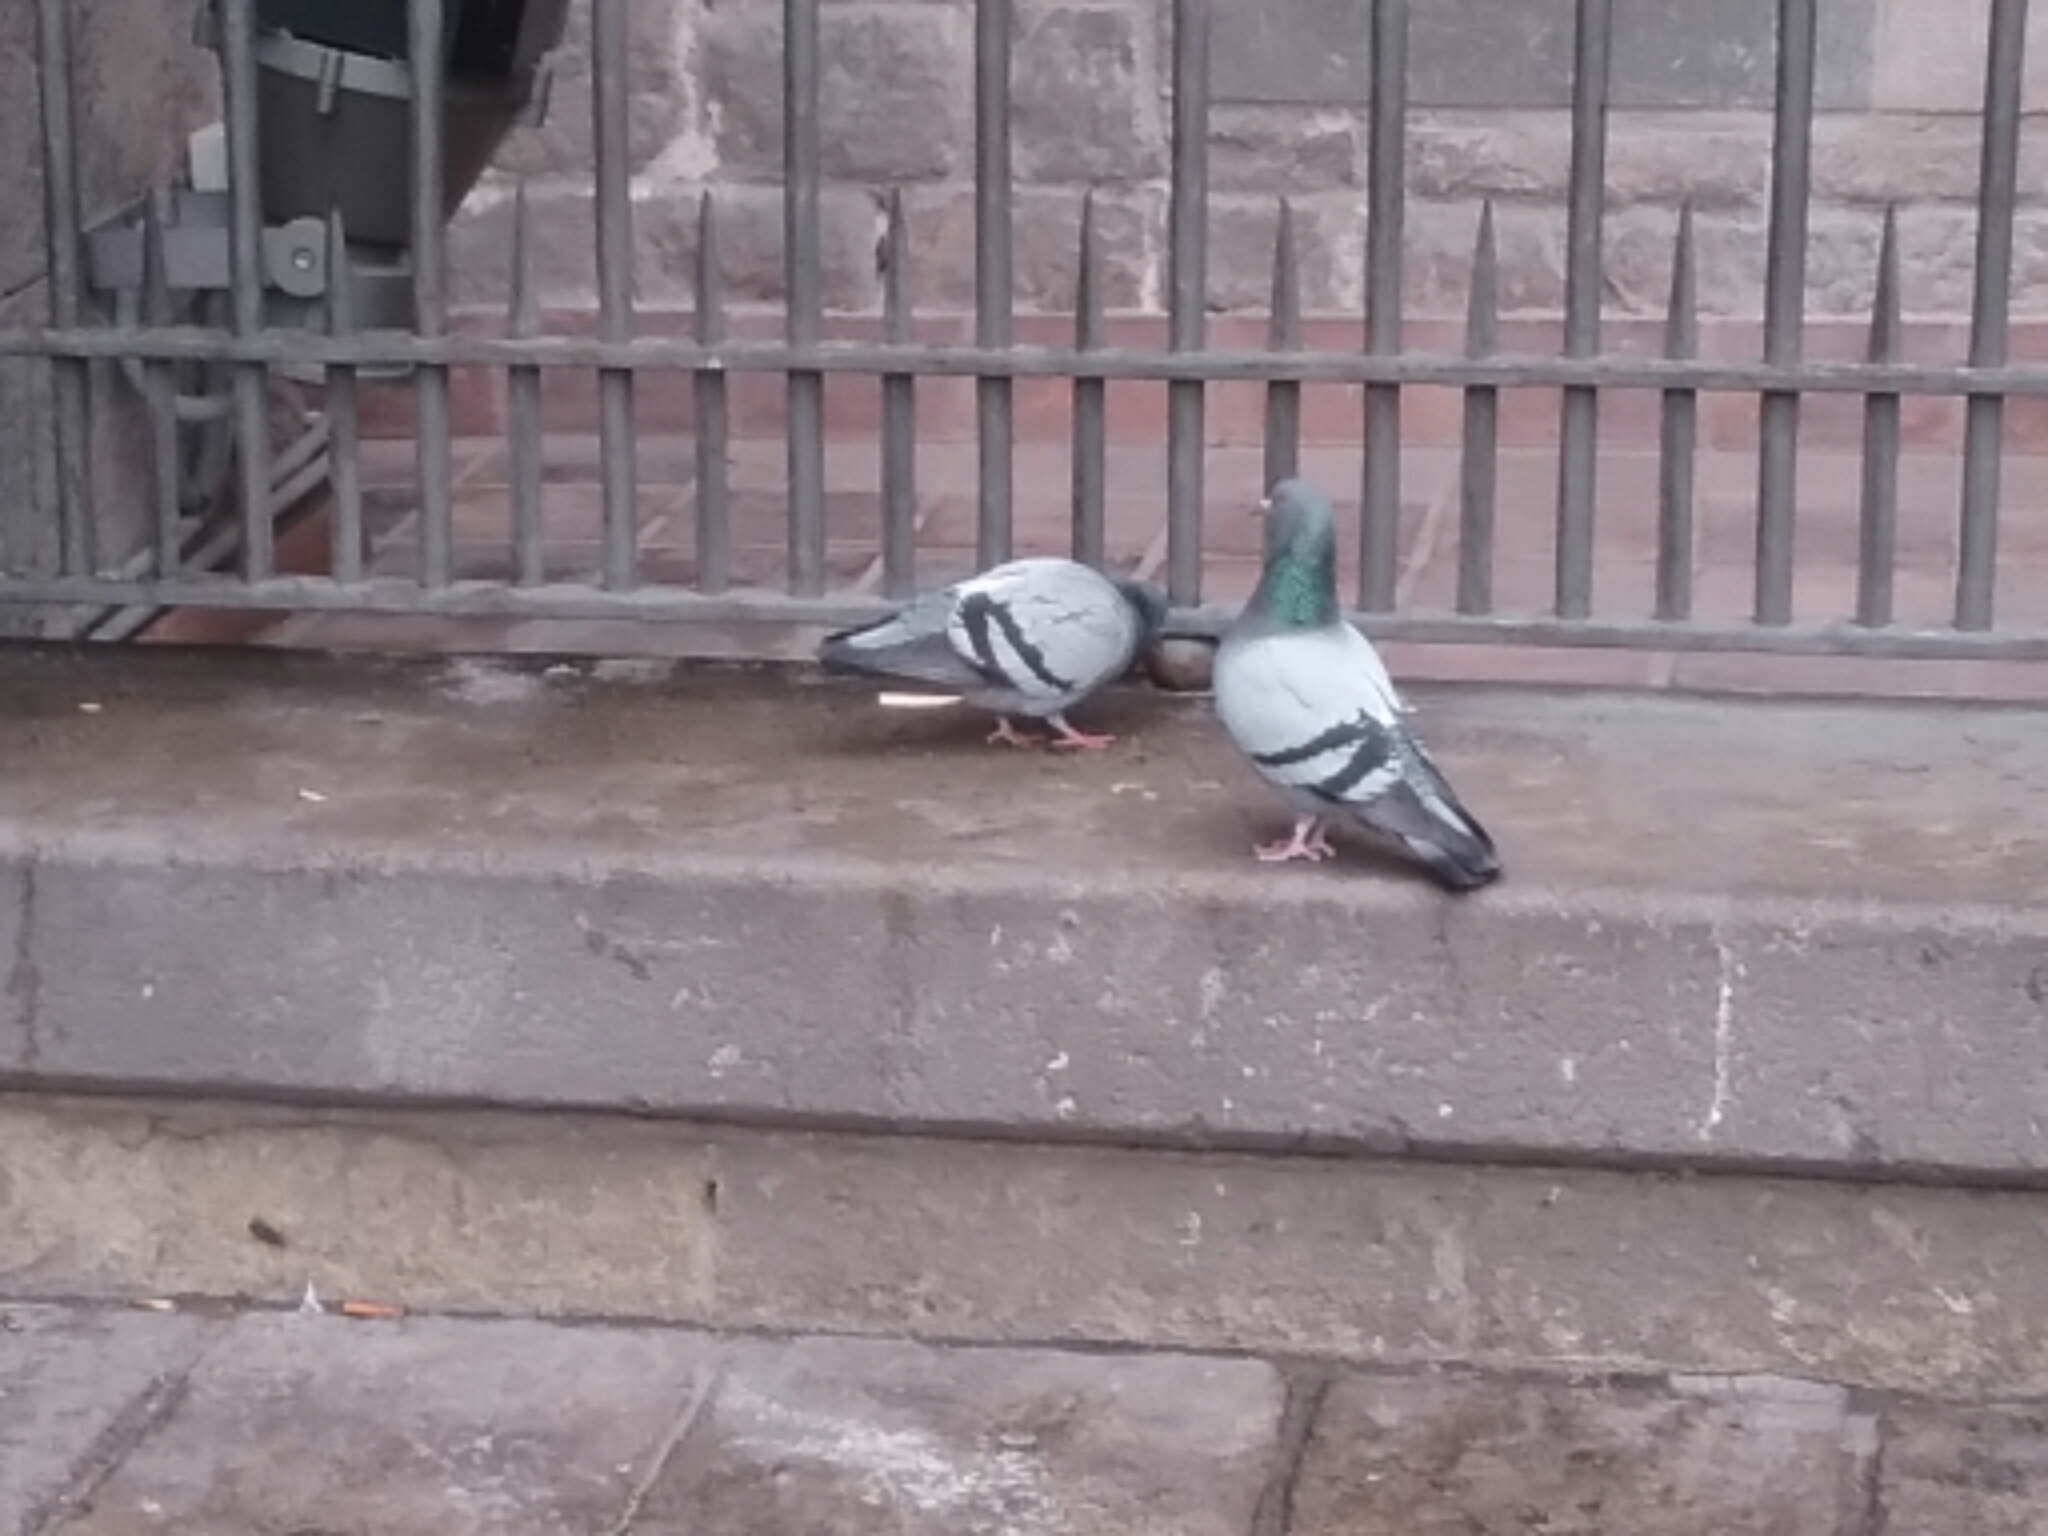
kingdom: Animalia
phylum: Chordata
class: Aves
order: Columbiformes
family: Columbidae
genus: Columba
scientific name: Columba livia
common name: Rock pigeon
